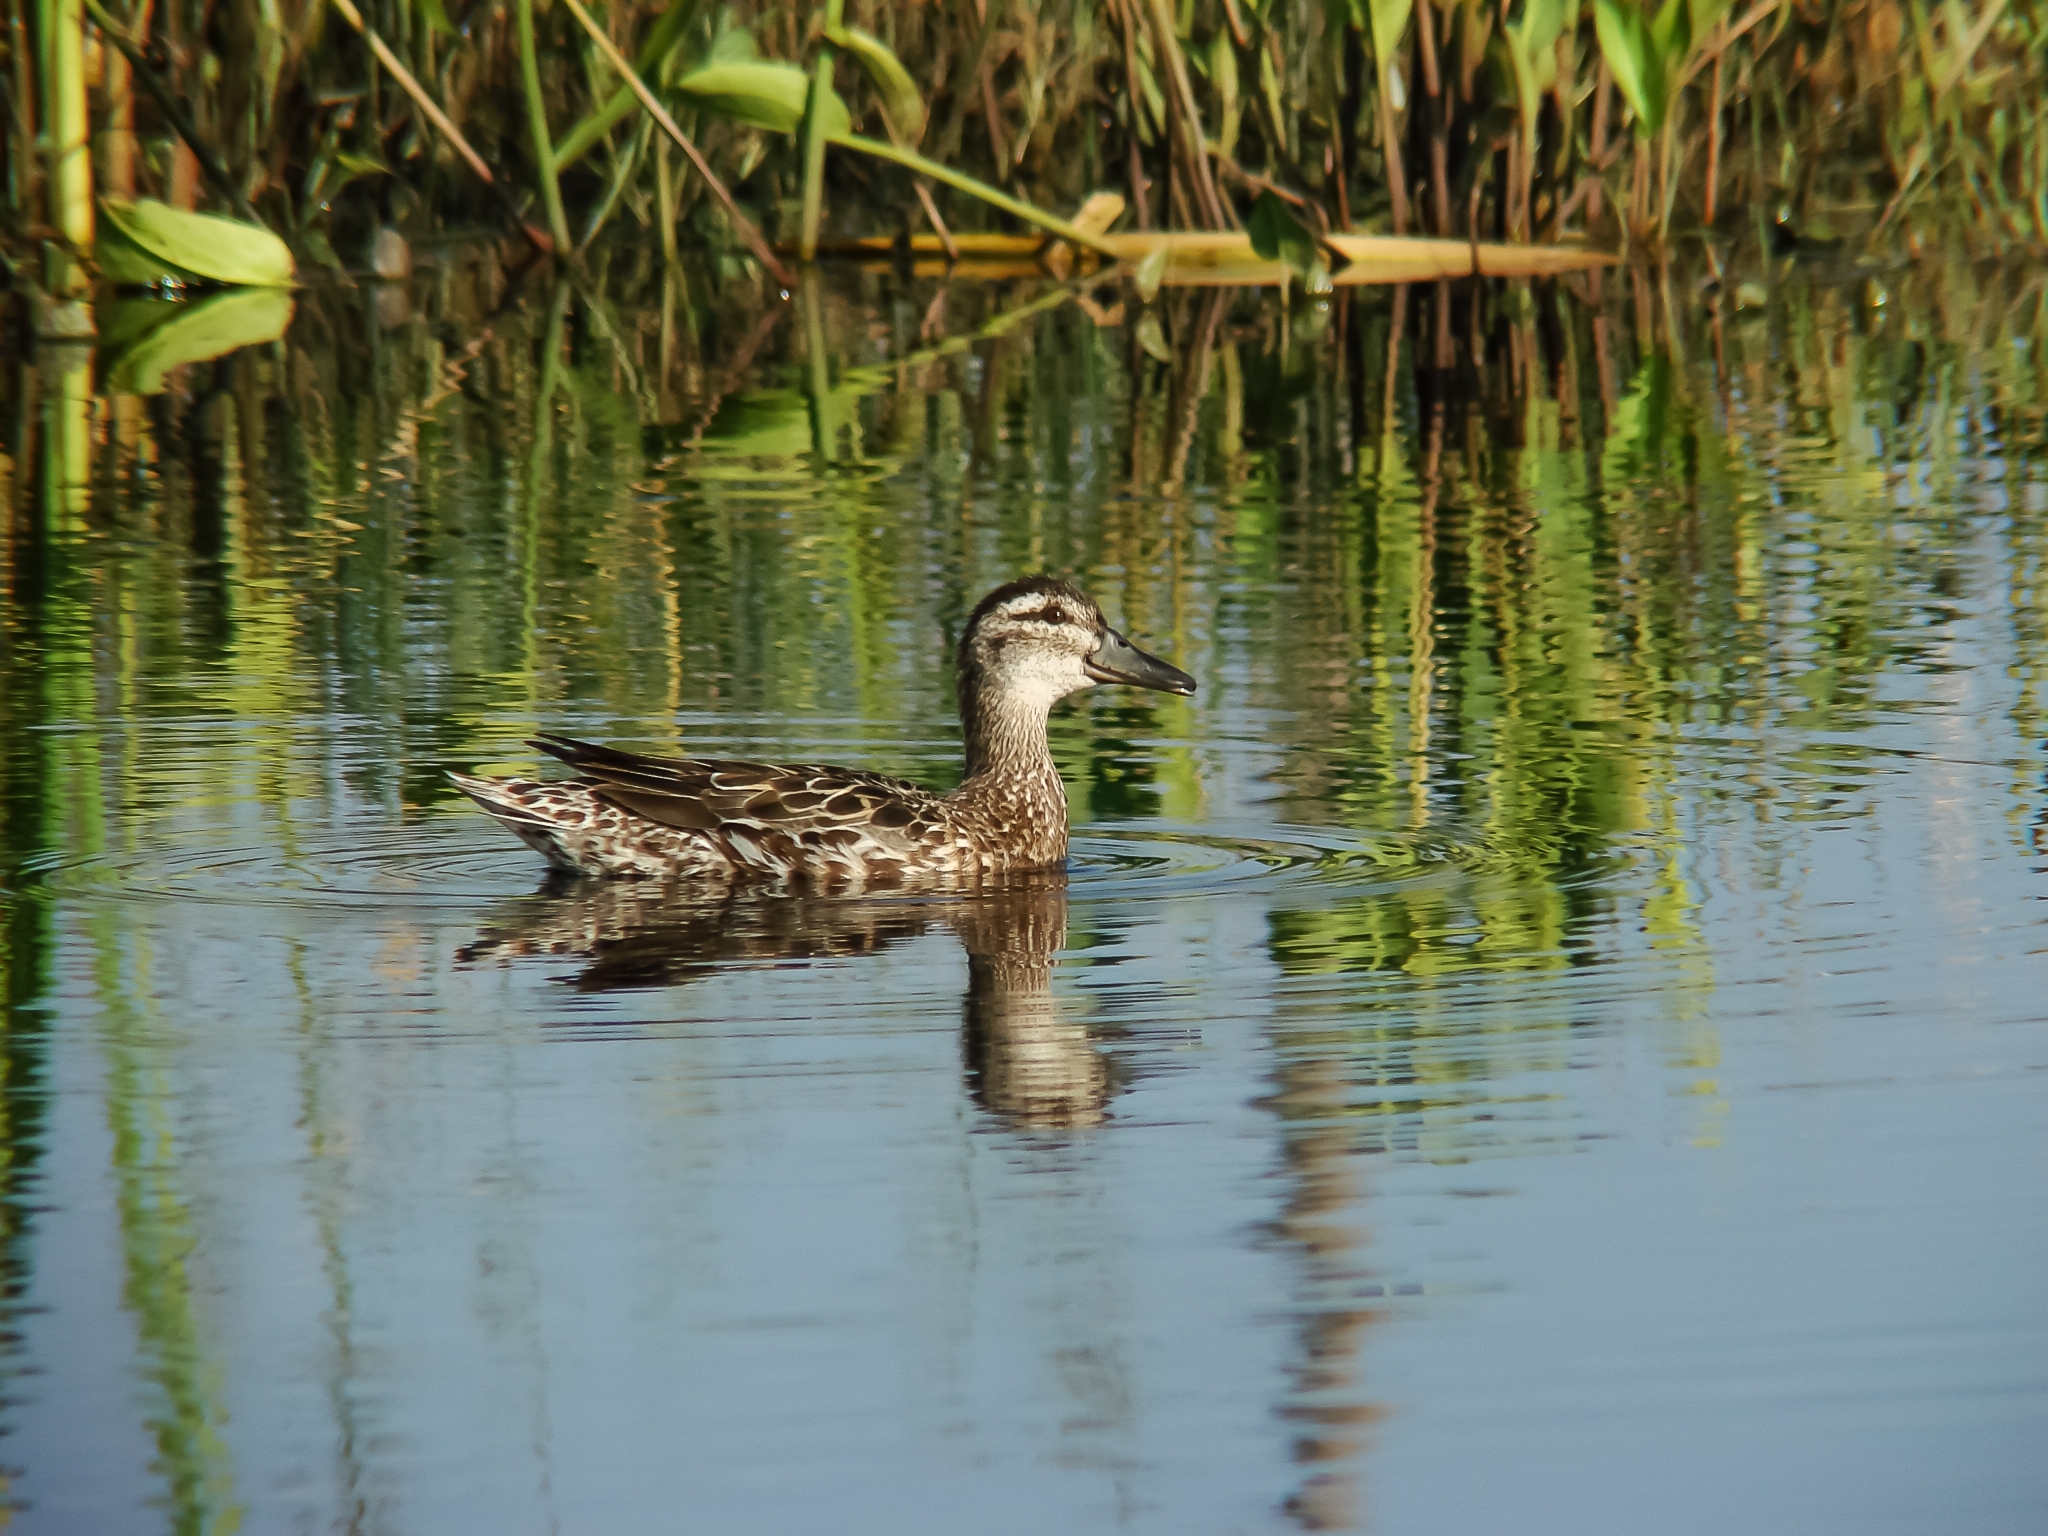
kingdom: Animalia
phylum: Chordata
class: Aves
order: Anseriformes
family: Anatidae
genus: Spatula
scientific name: Spatula querquedula
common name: Garganey
